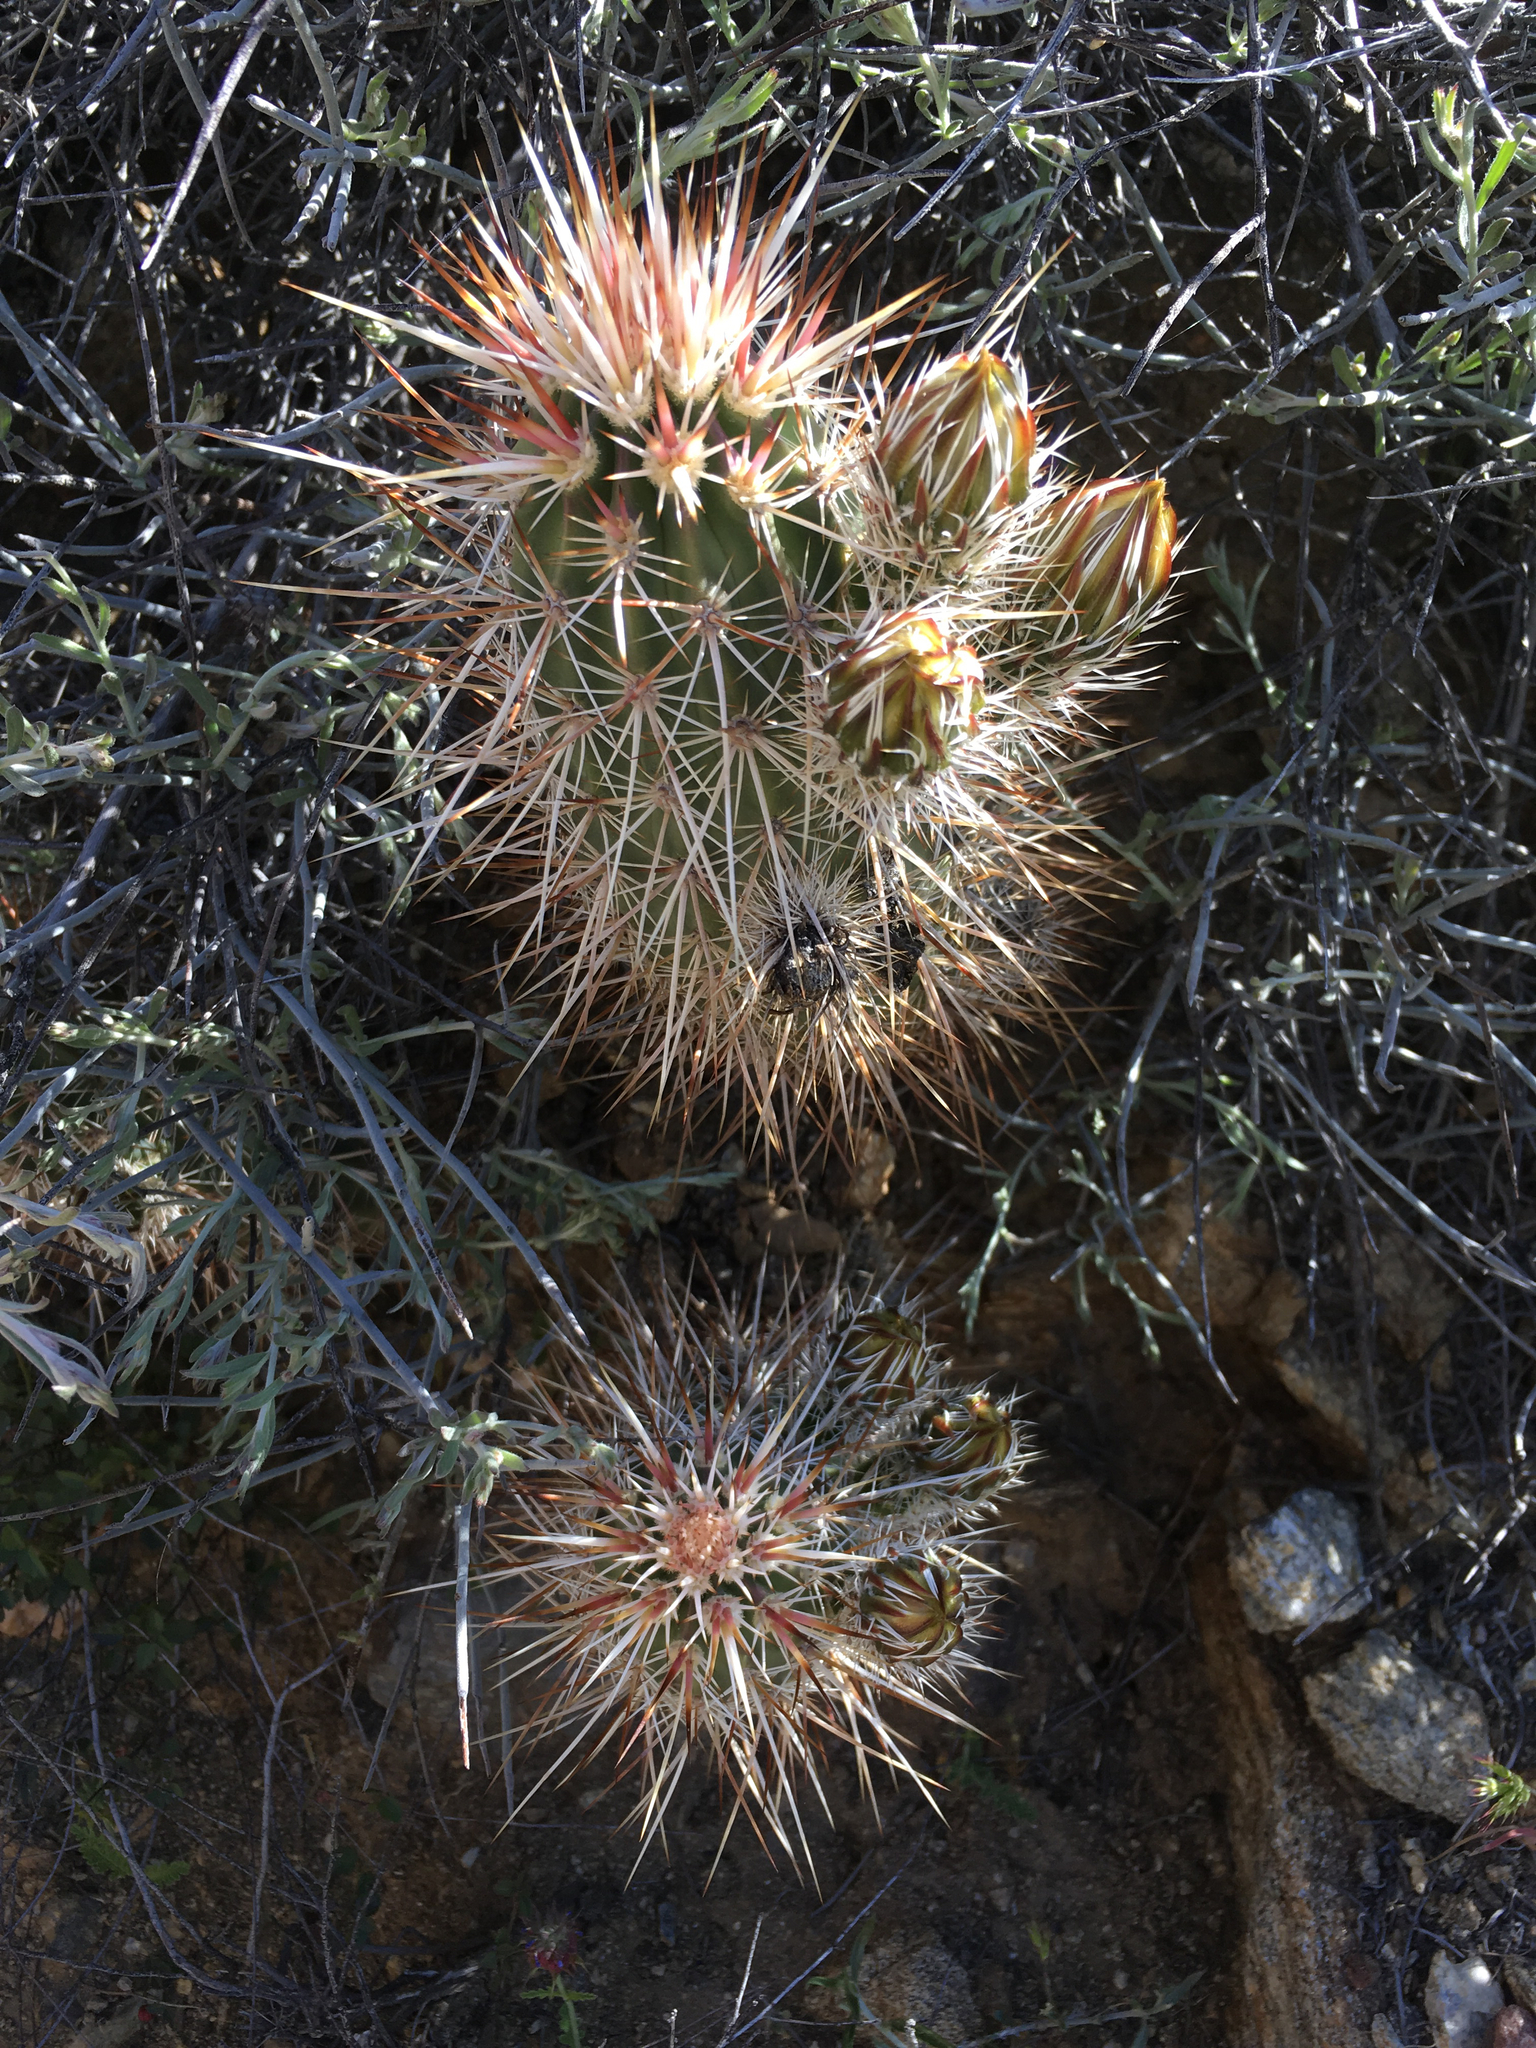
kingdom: Plantae
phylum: Tracheophyta
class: Magnoliopsida
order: Caryophyllales
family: Cactaceae
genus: Echinocereus
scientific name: Echinocereus engelmannii
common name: Engelmann's hedgehog cactus
